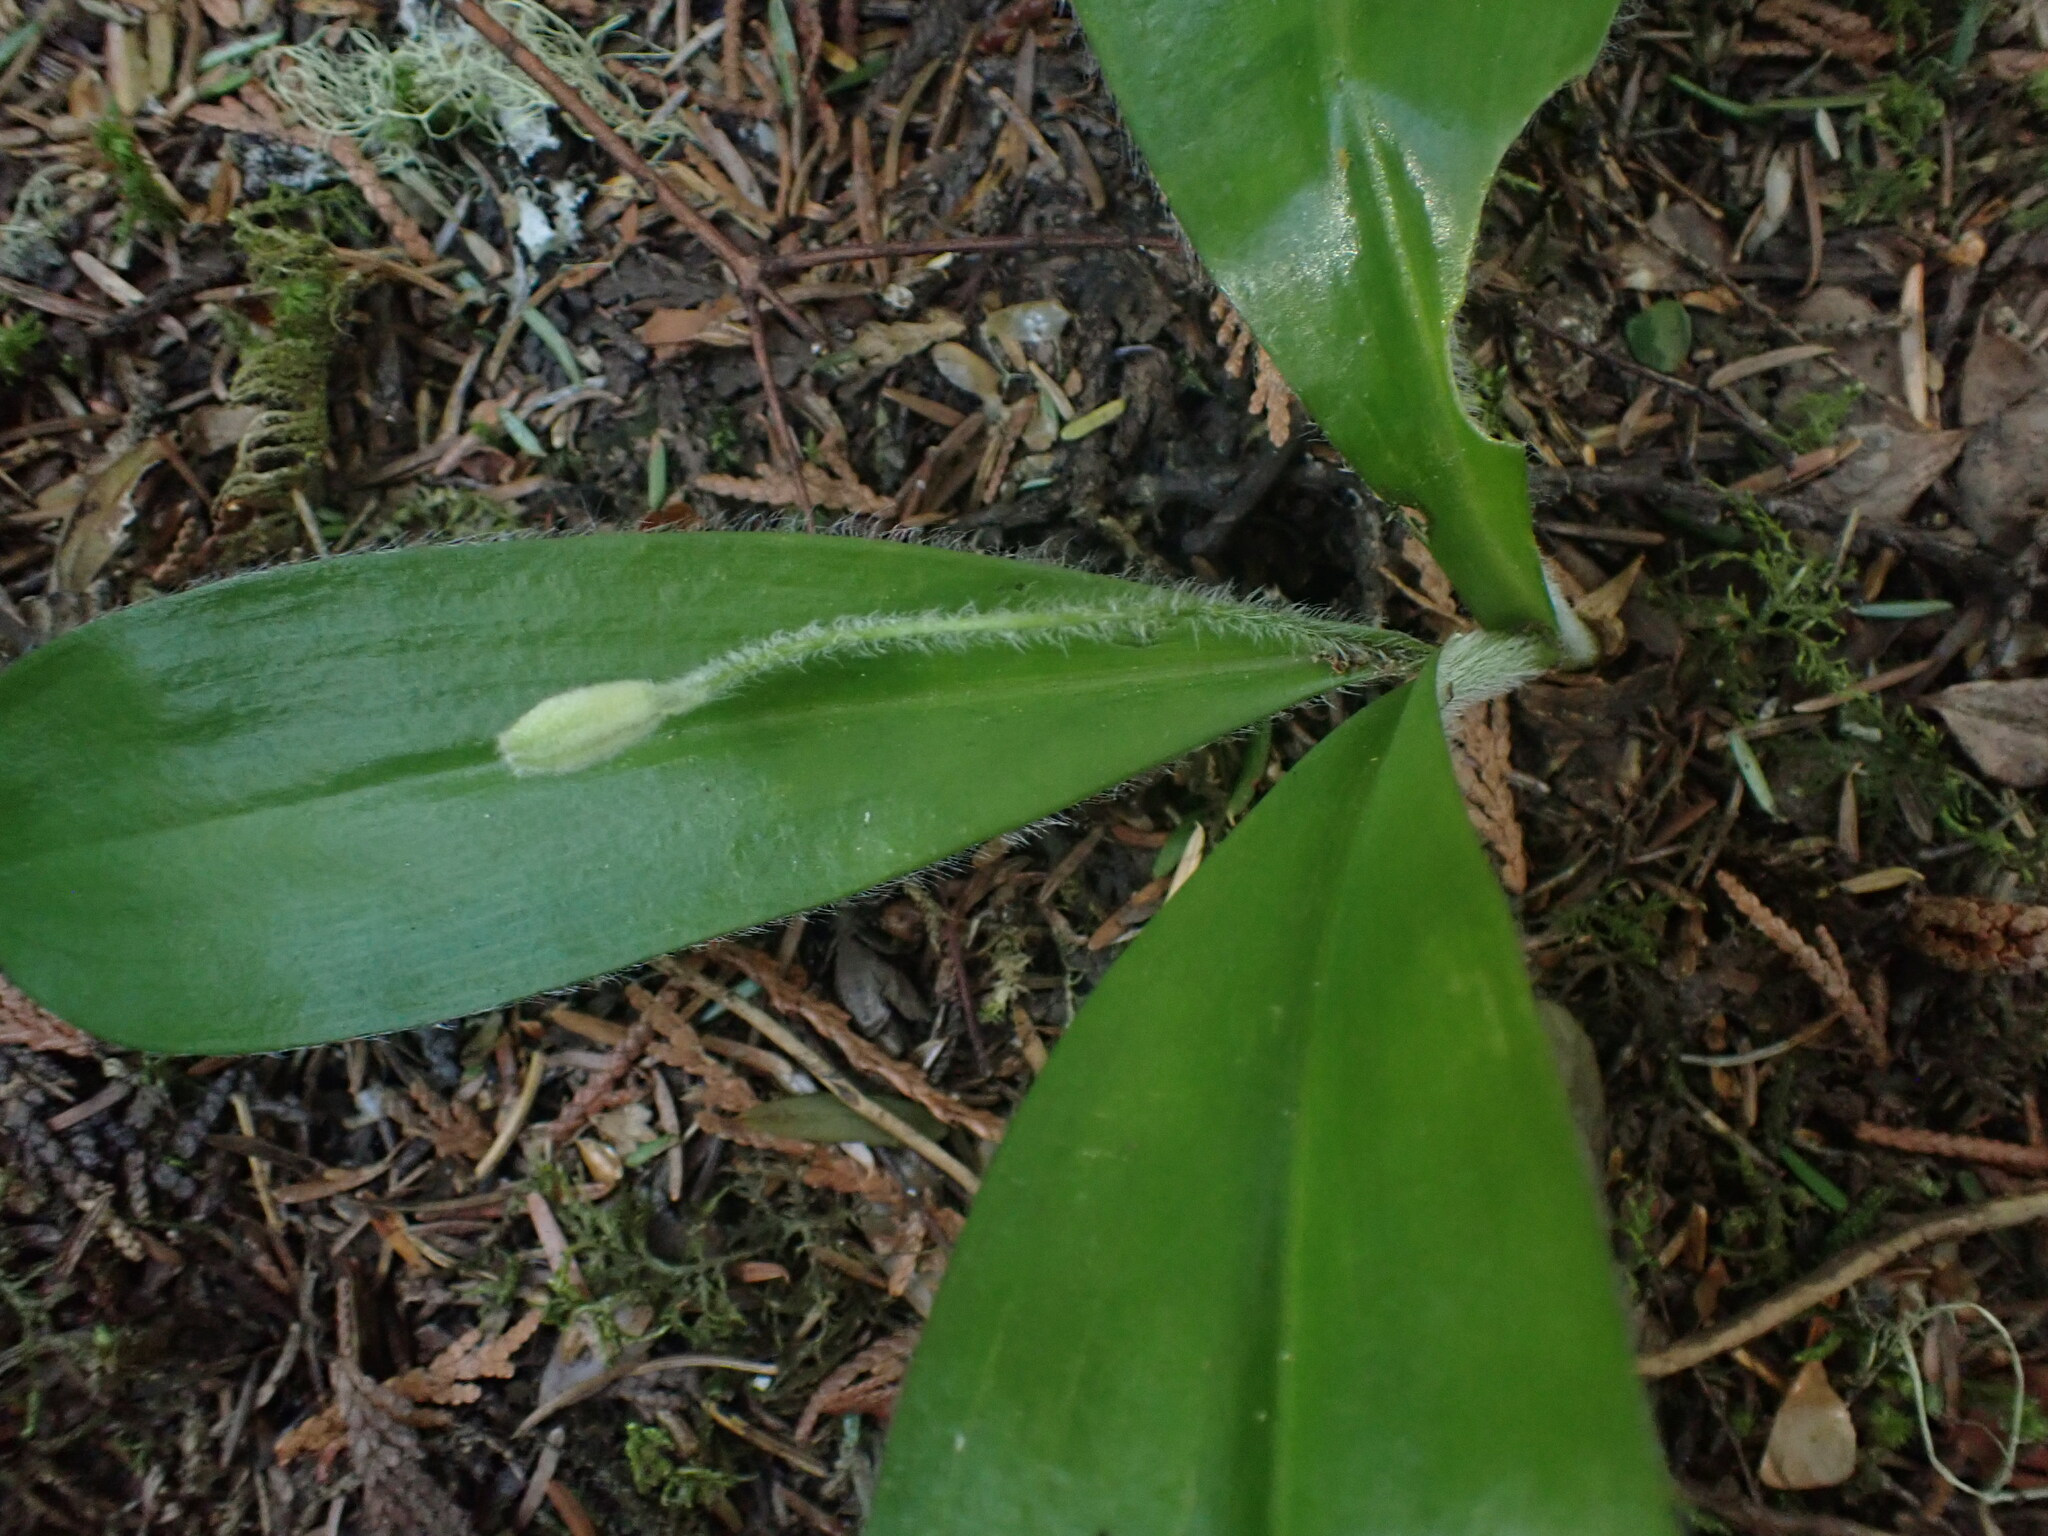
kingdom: Plantae
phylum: Tracheophyta
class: Liliopsida
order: Liliales
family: Liliaceae
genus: Clintonia
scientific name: Clintonia uniflora
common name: Queen's cup
